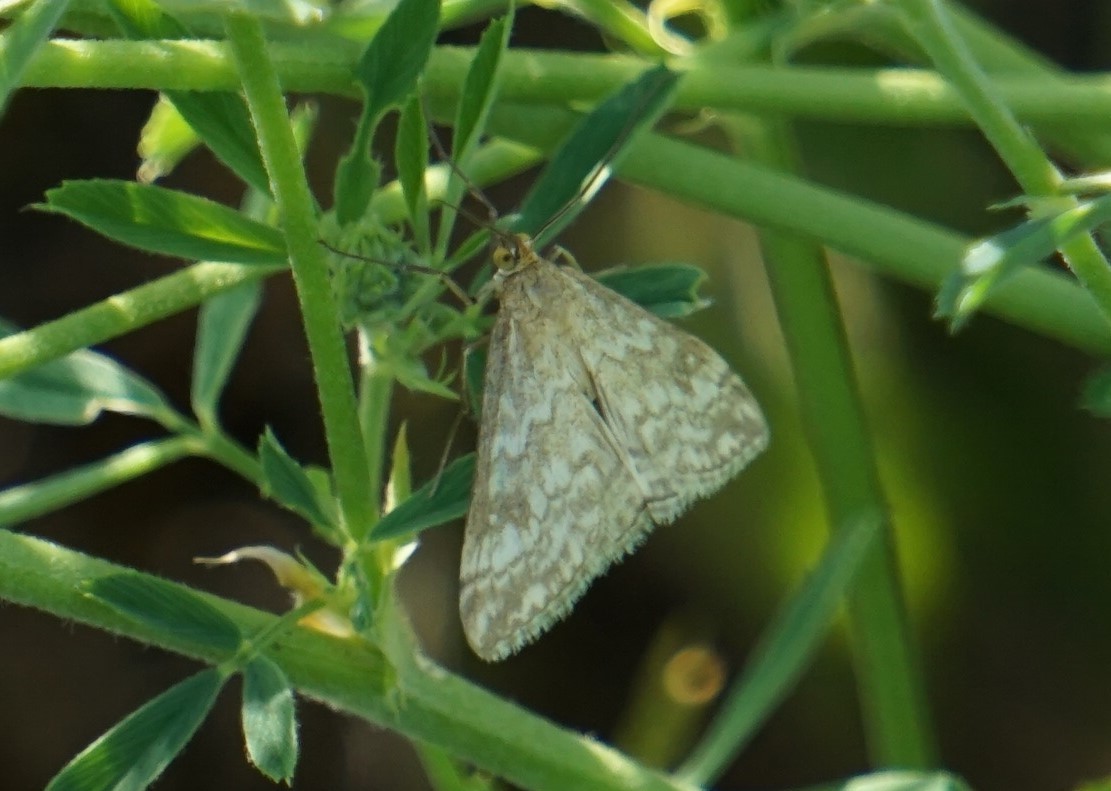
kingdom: Animalia
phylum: Arthropoda
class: Insecta
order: Lepidoptera
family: Crambidae
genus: Evergestis
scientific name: Evergestis frumentalis
